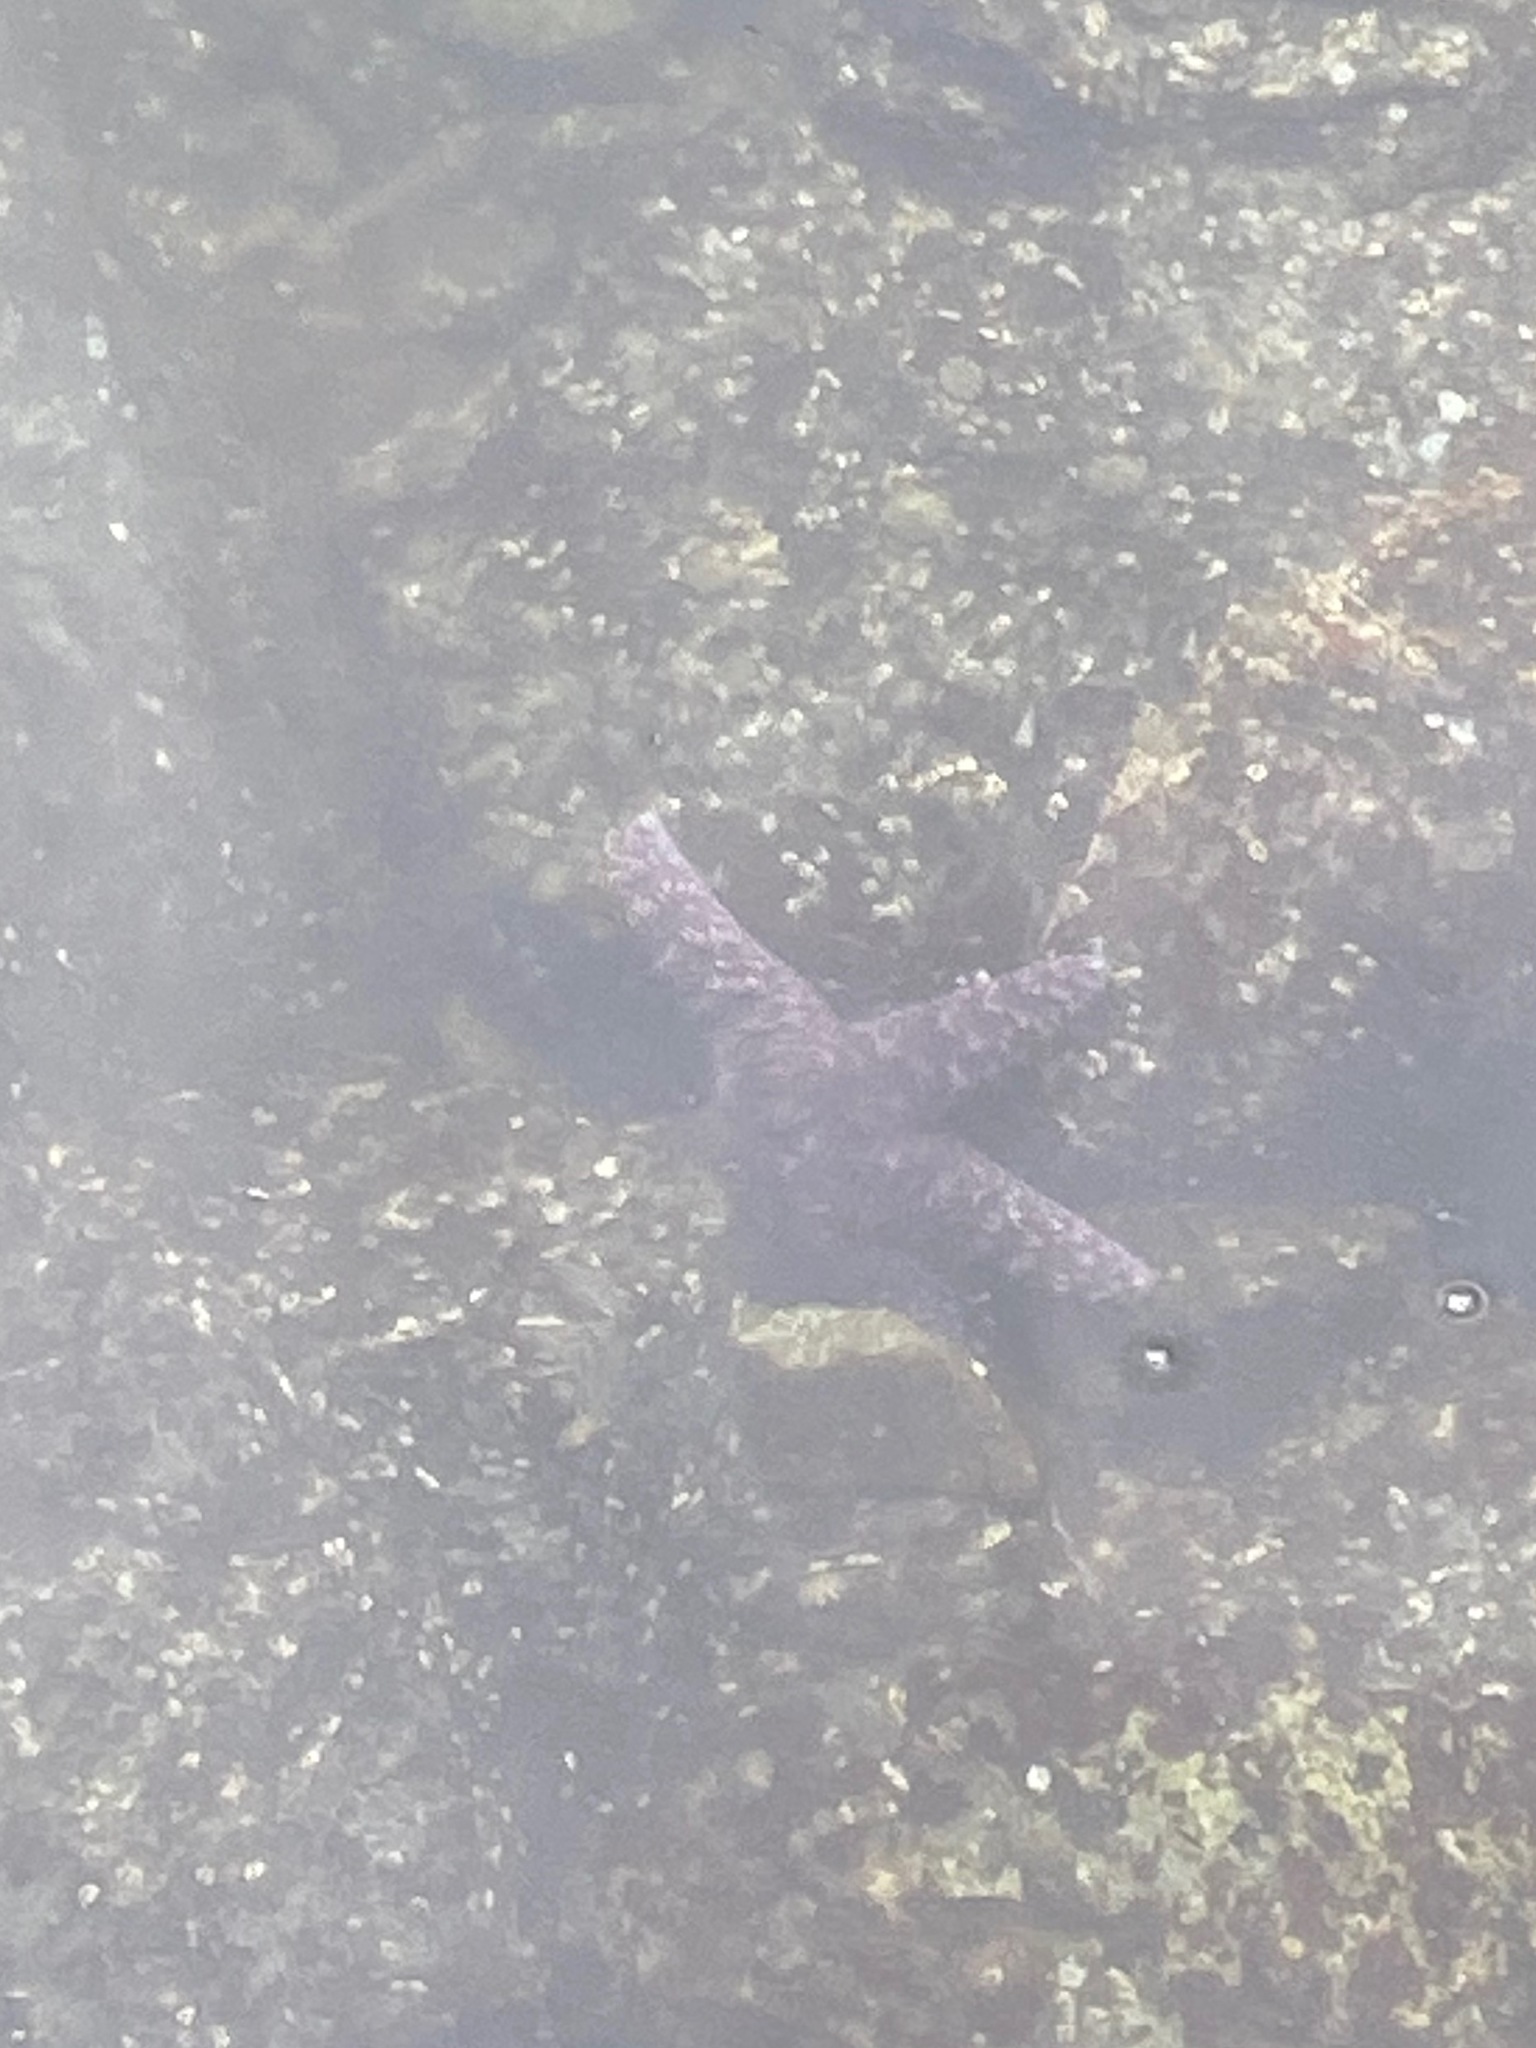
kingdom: Animalia
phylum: Echinodermata
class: Asteroidea
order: Forcipulatida
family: Asteriidae
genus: Pisaster
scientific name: Pisaster ochraceus
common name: Ochre stars
